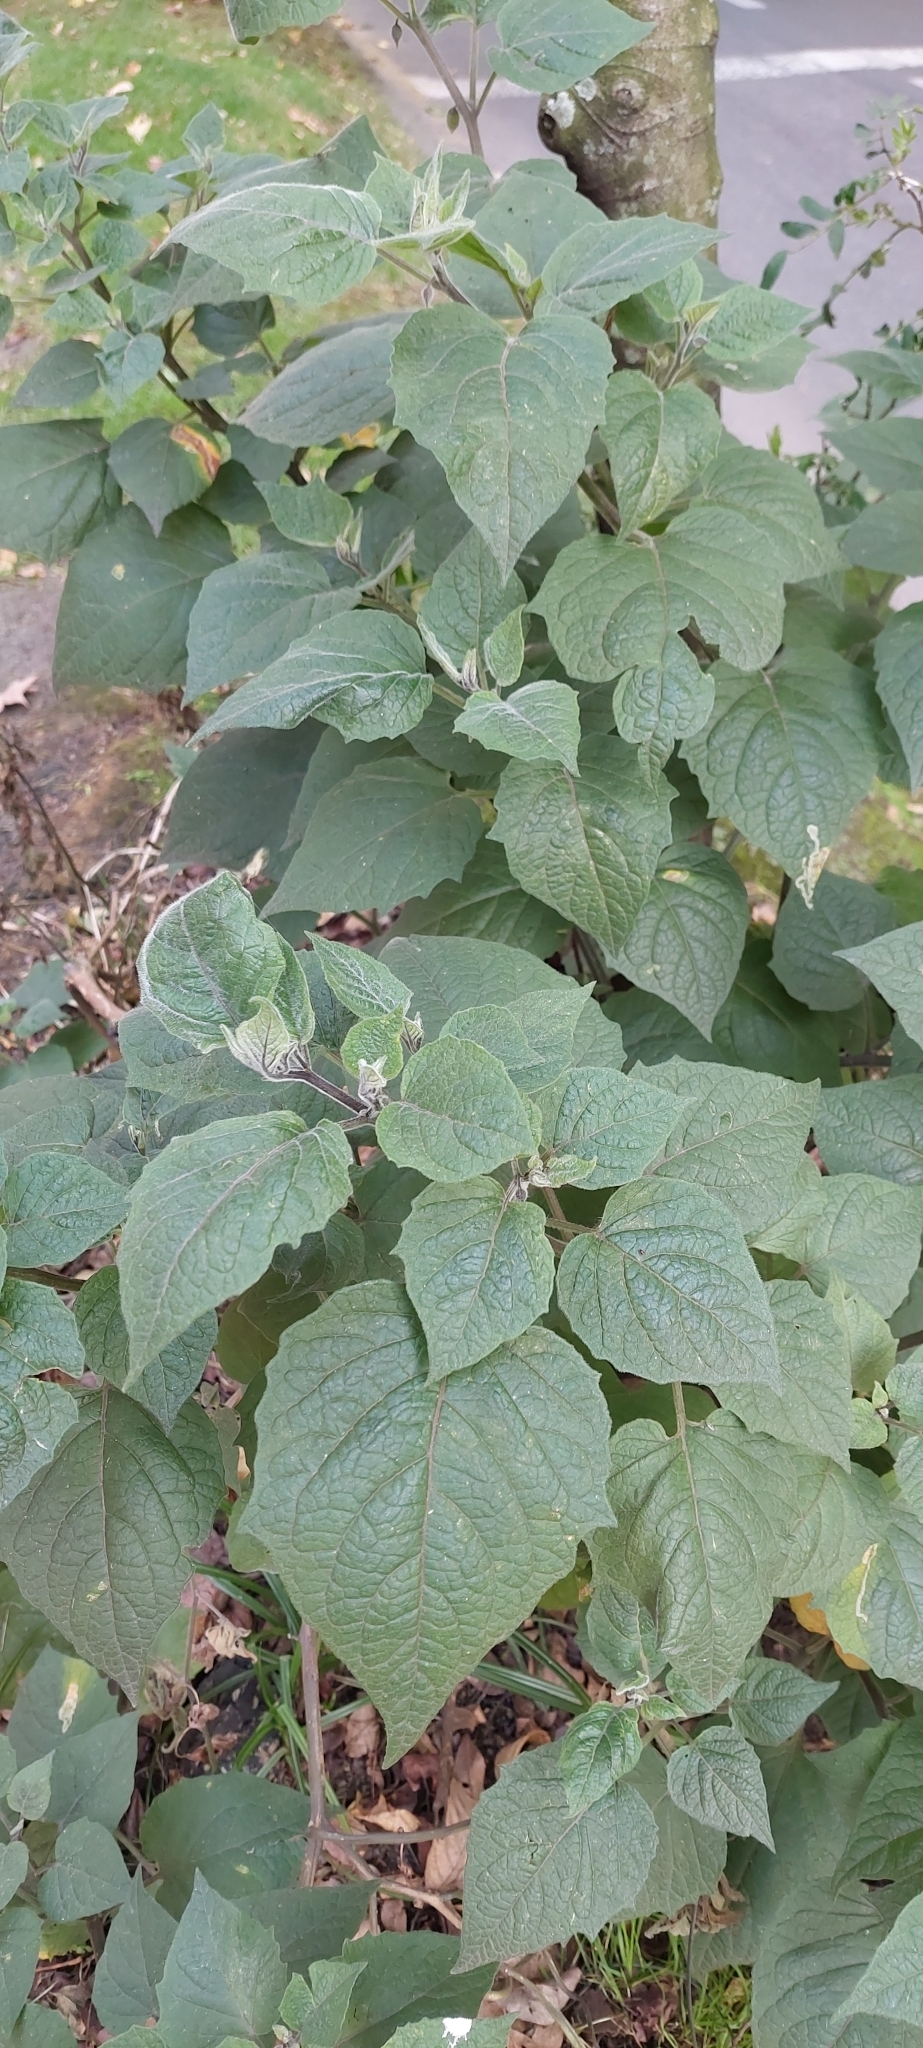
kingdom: Plantae
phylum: Tracheophyta
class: Magnoliopsida
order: Solanales
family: Solanaceae
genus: Physalis
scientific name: Physalis peruviana
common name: Cape-gooseberry
